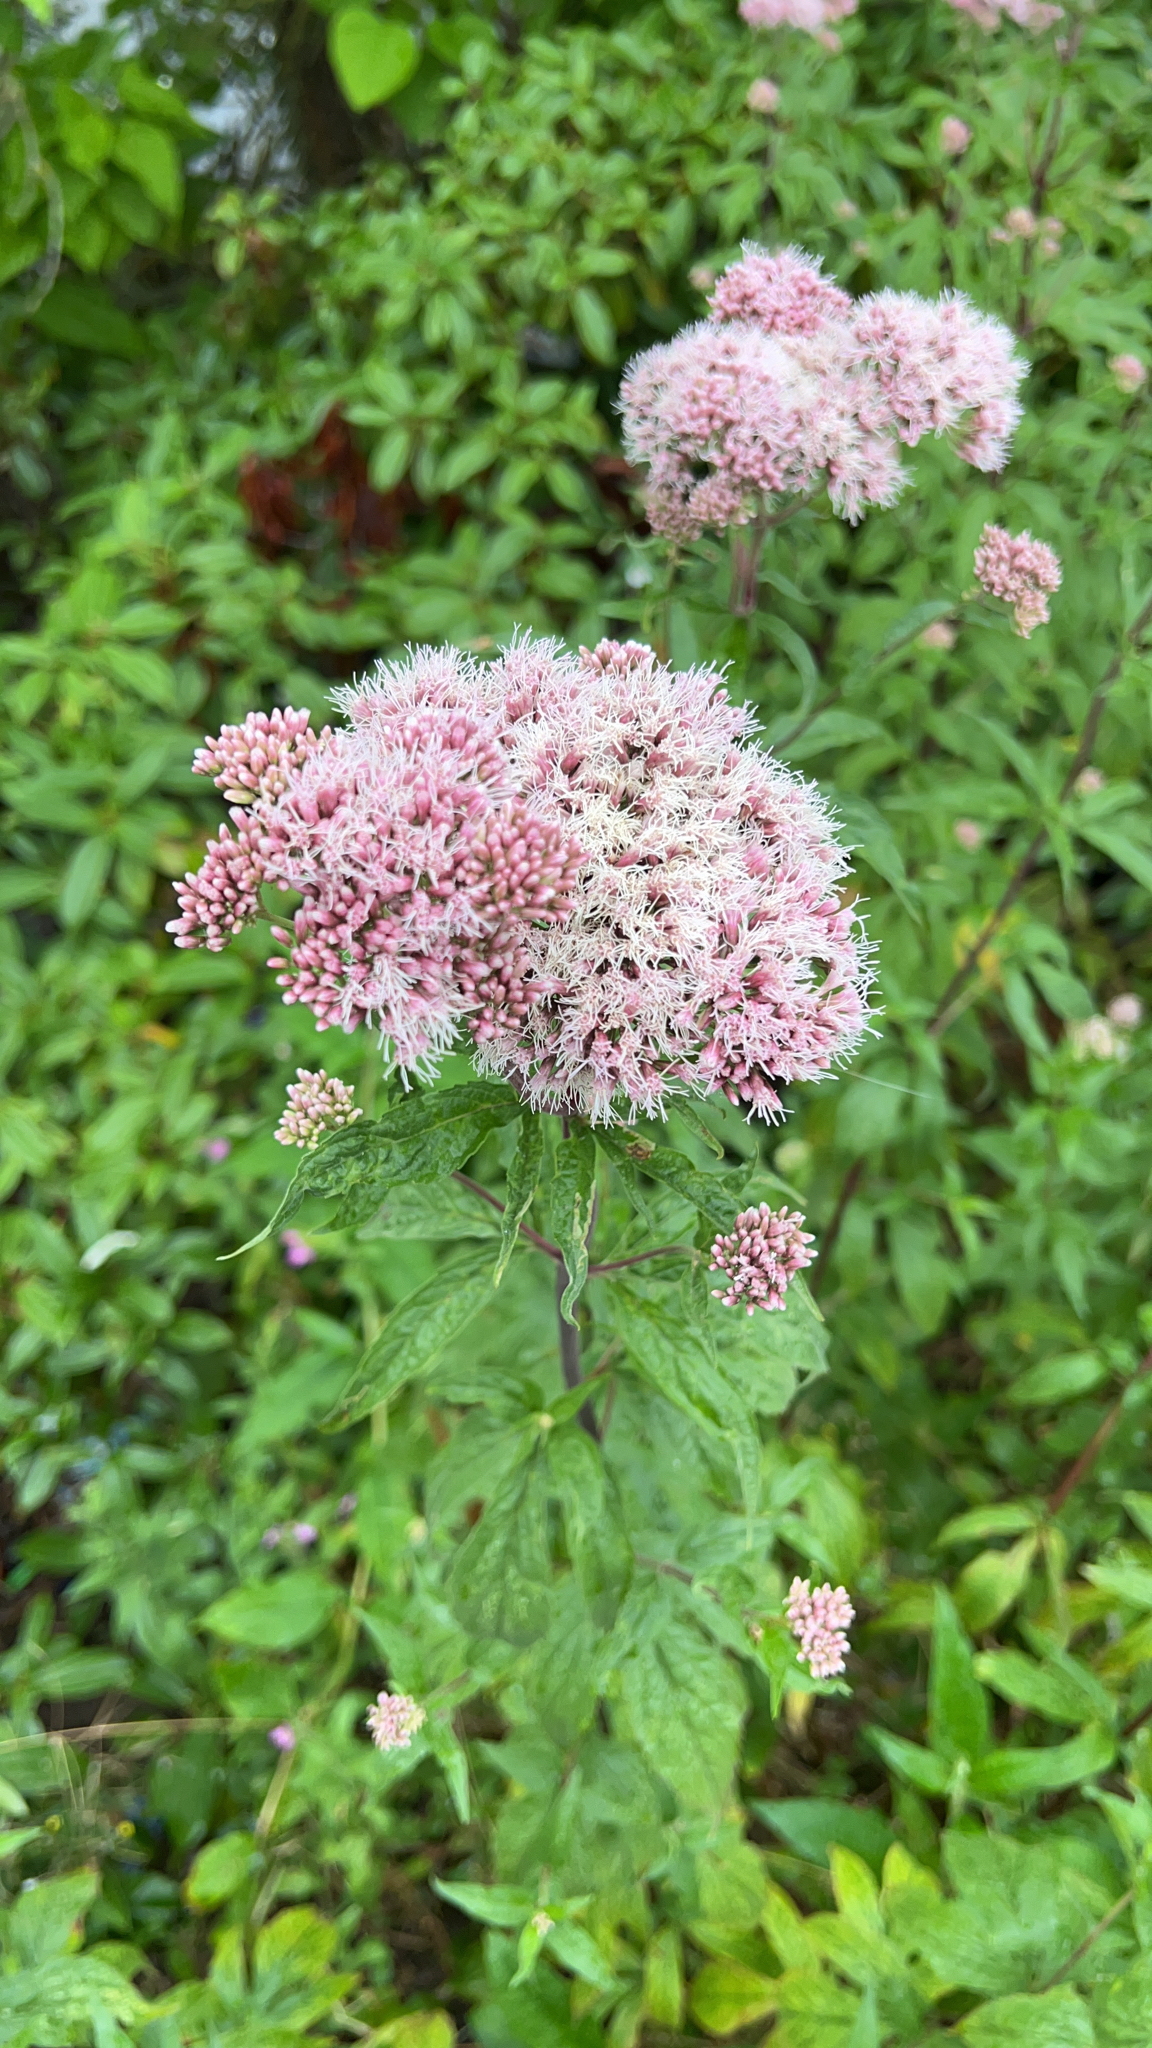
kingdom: Plantae
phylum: Tracheophyta
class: Magnoliopsida
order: Asterales
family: Asteraceae
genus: Eupatorium
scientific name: Eupatorium cannabinum
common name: Hemp-agrimony
